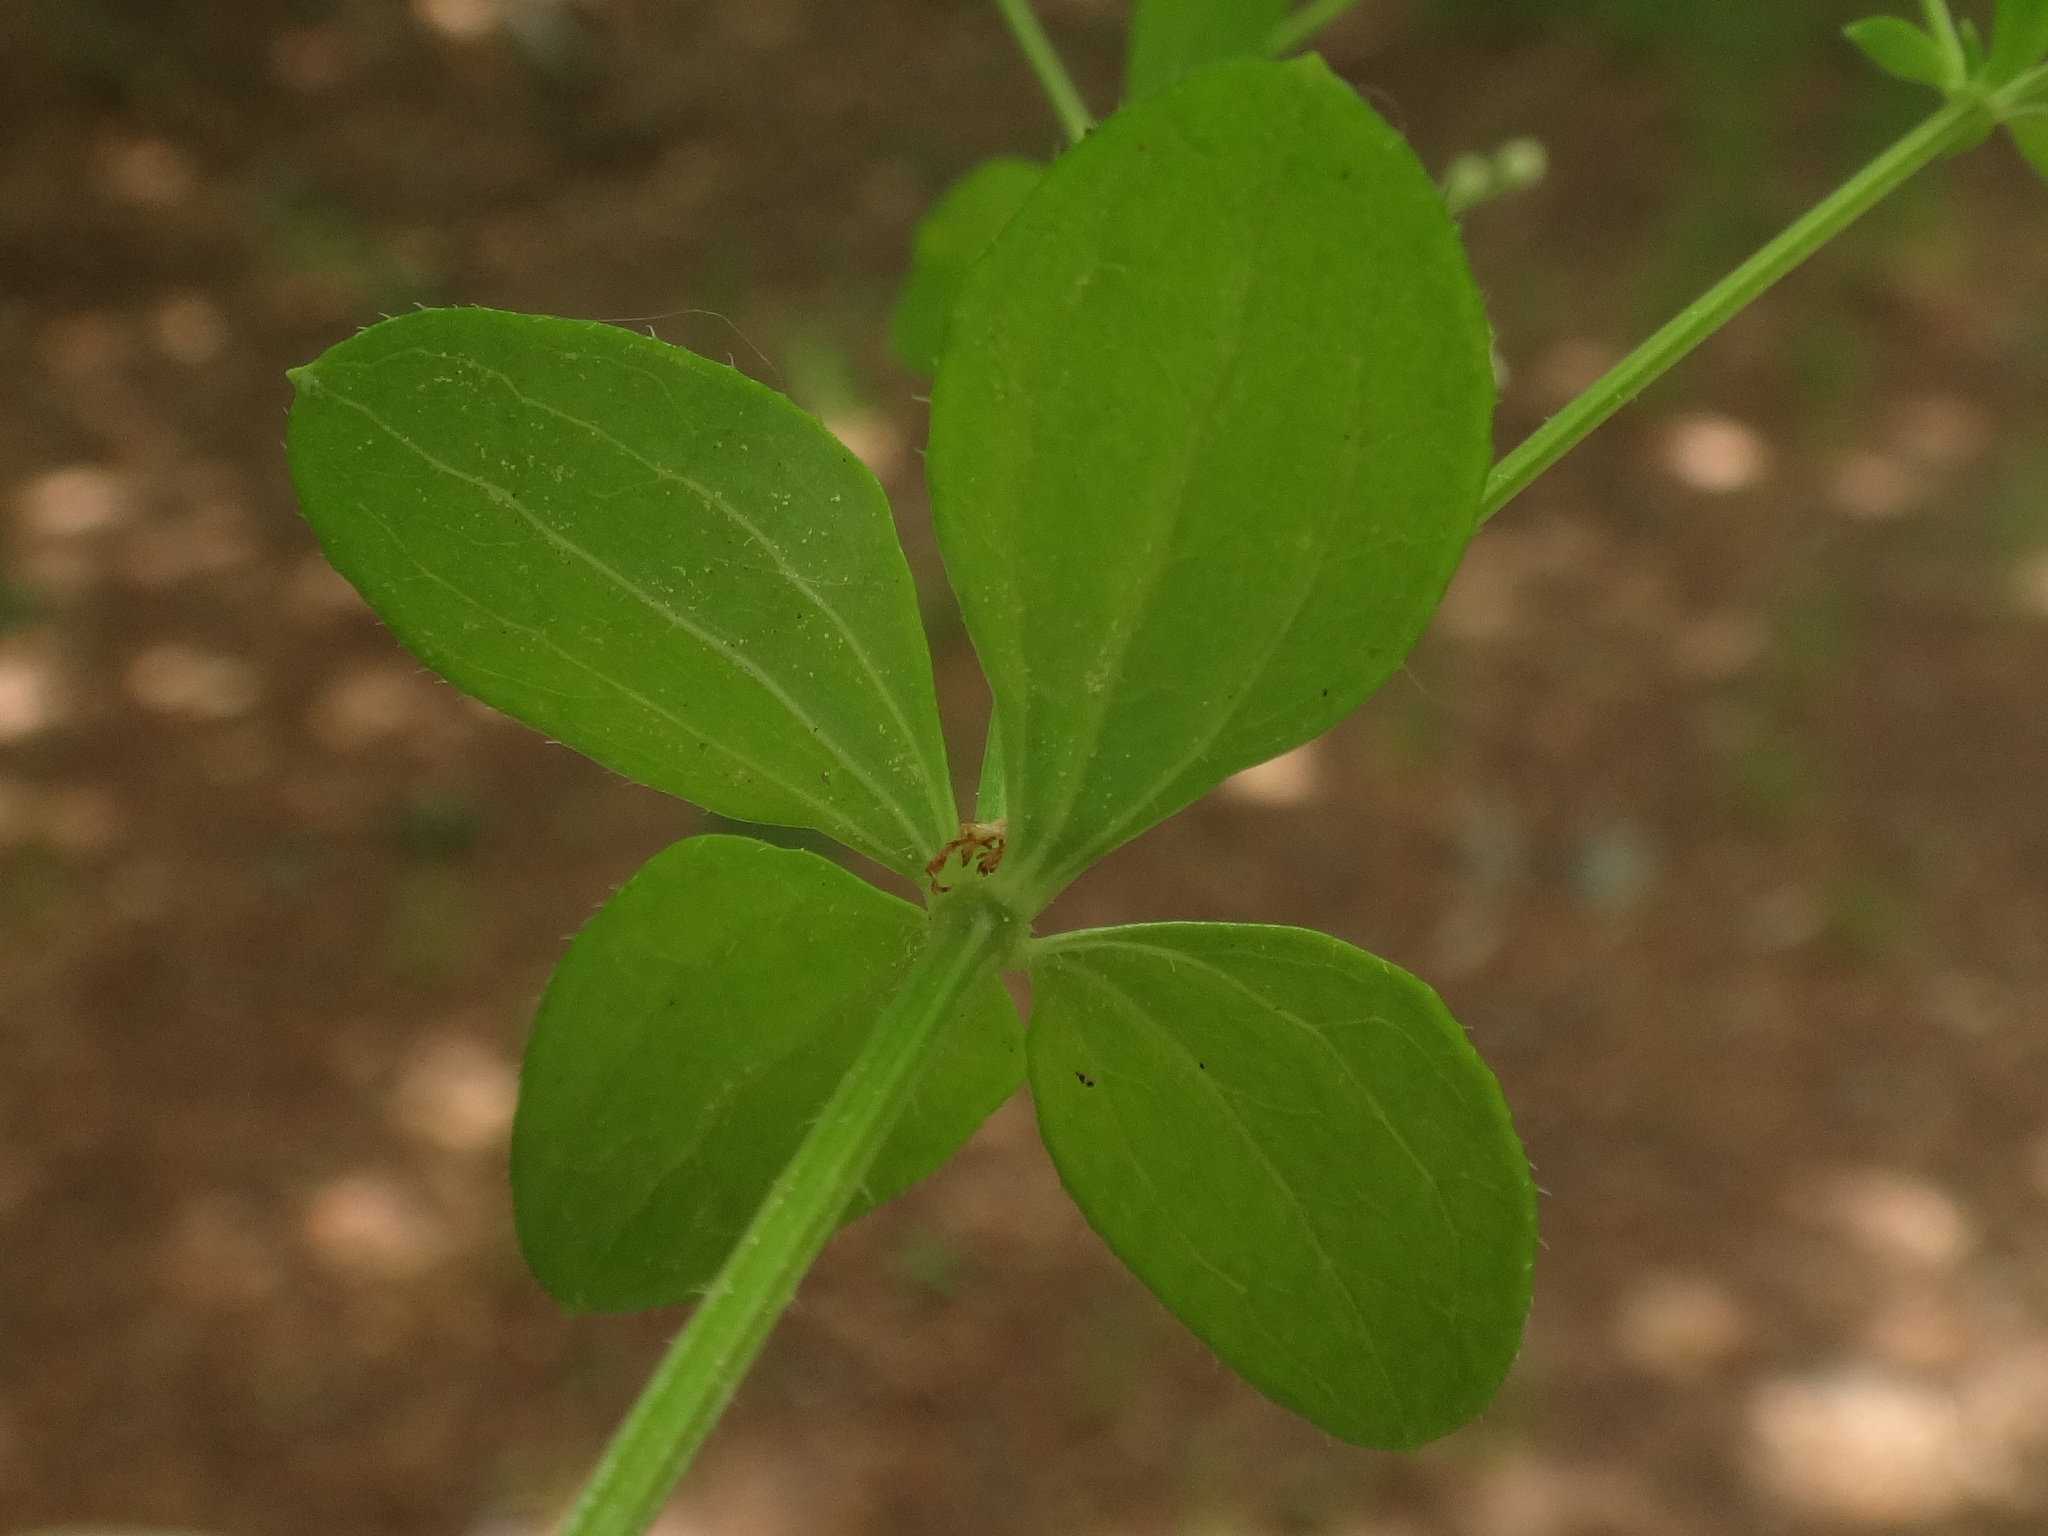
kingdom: Plantae
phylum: Tracheophyta
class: Magnoliopsida
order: Gentianales
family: Rubiaceae
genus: Galium
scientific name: Galium rotundifolium
